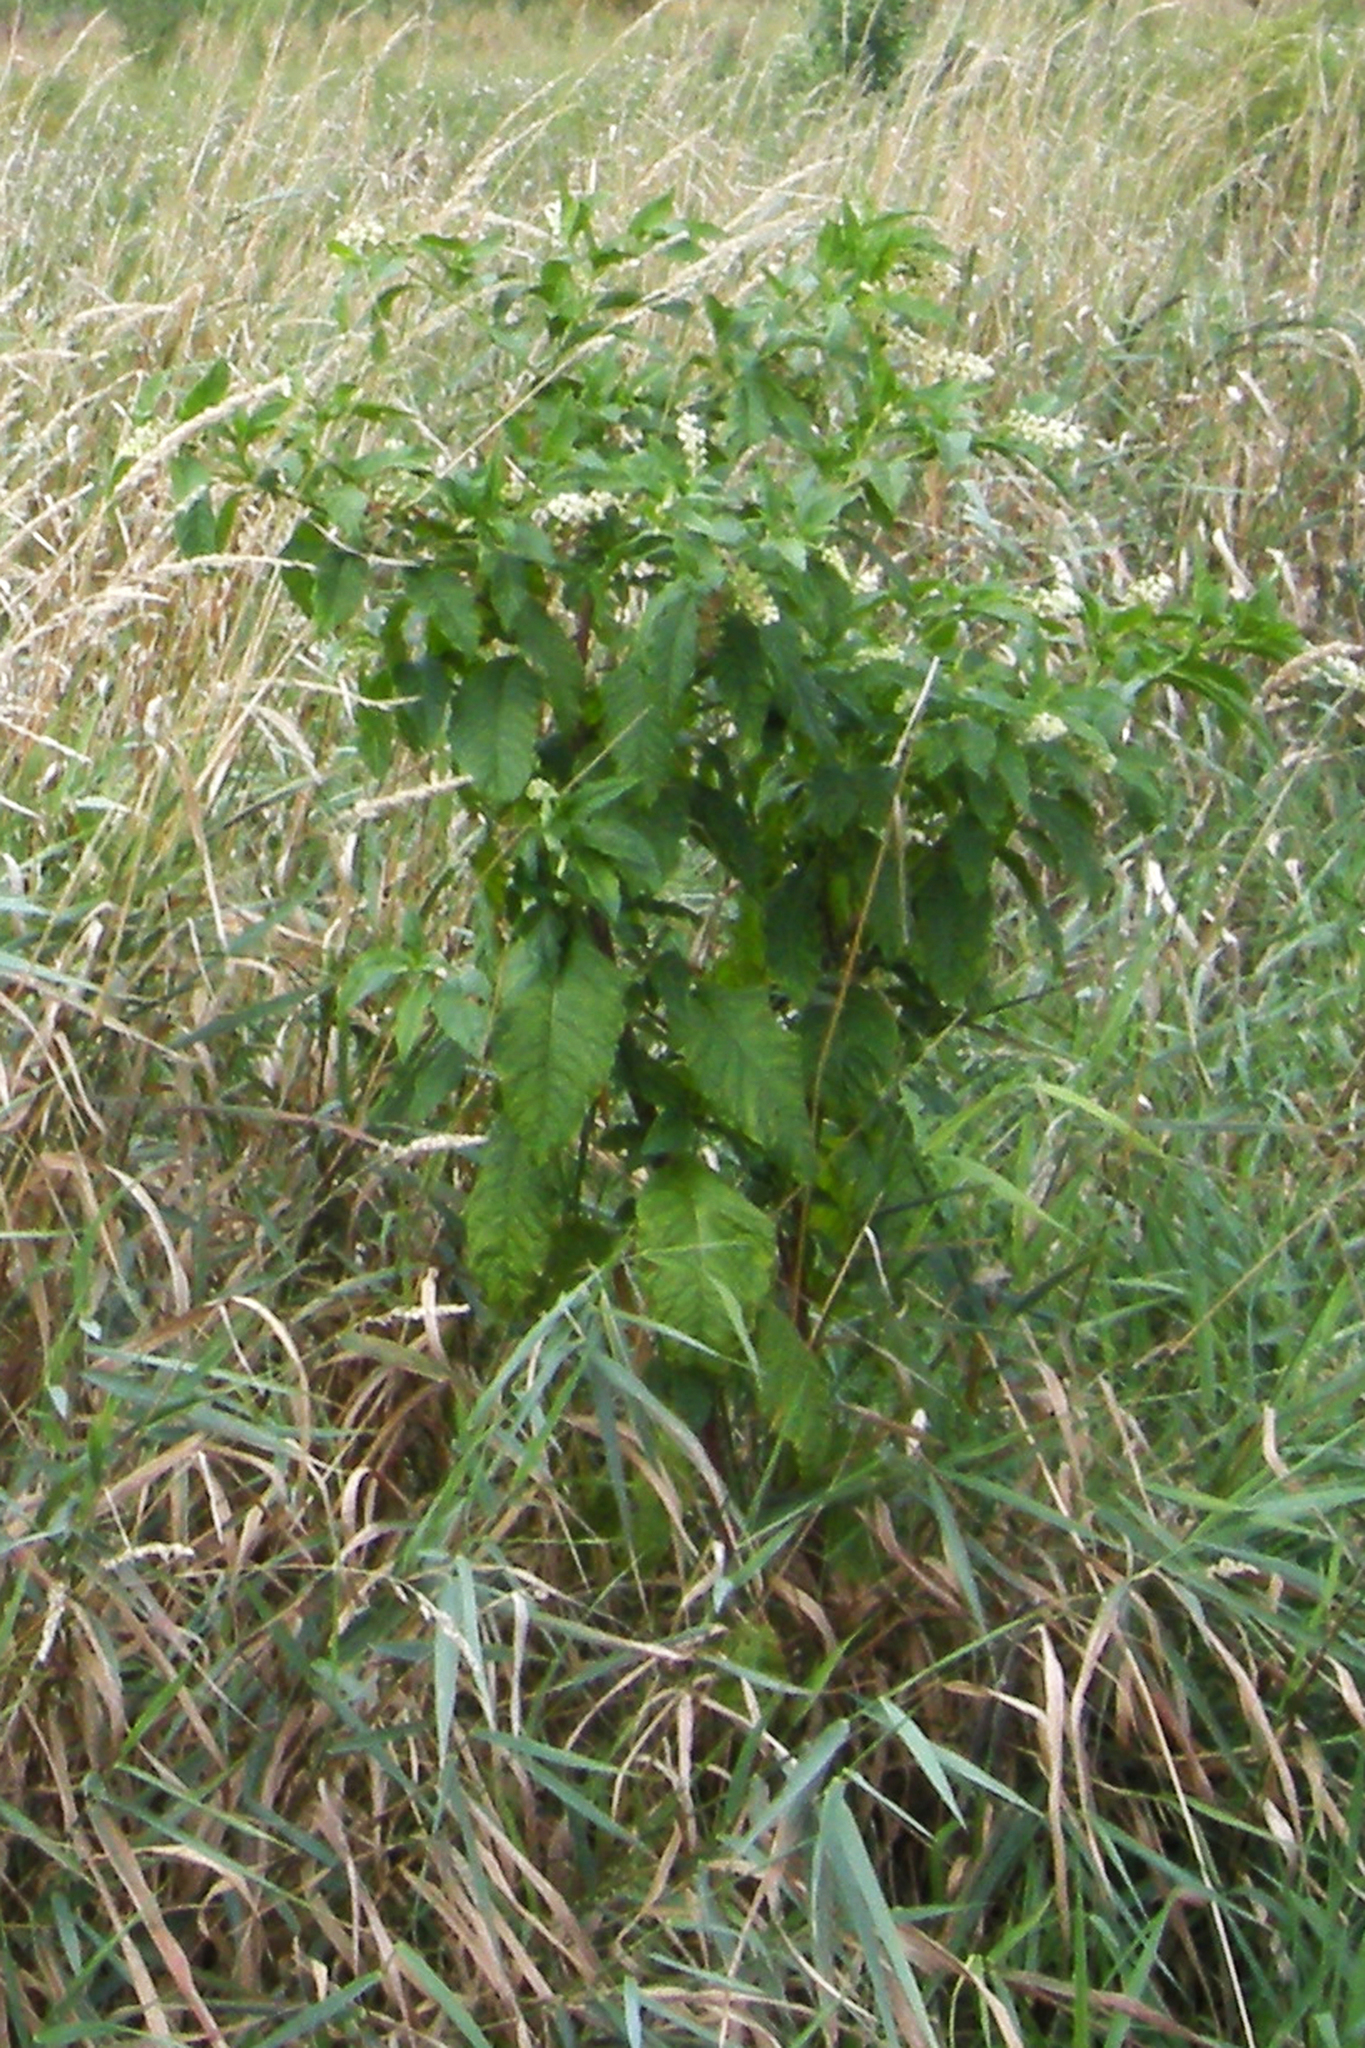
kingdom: Plantae
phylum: Tracheophyta
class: Magnoliopsida
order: Caryophyllales
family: Phytolaccaceae
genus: Phytolacca
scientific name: Phytolacca americana
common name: American pokeweed
